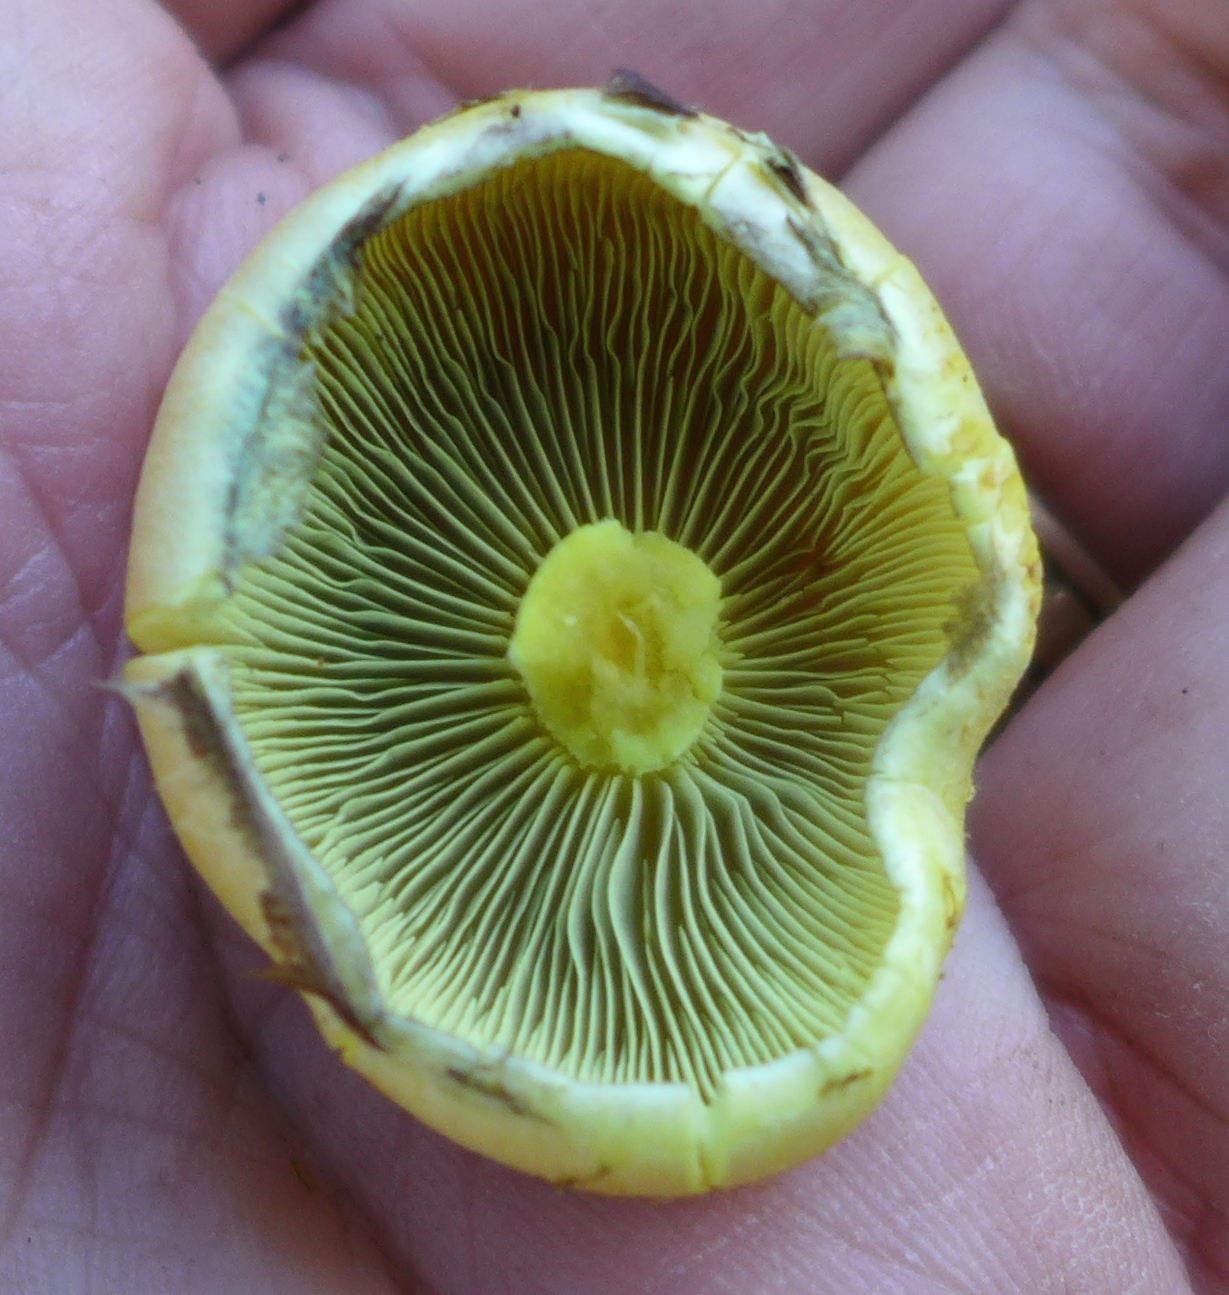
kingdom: Fungi
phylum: Basidiomycota
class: Agaricomycetes
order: Agaricales
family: Strophariaceae
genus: Hypholoma
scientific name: Hypholoma fasciculare
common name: Sulphur tuft
